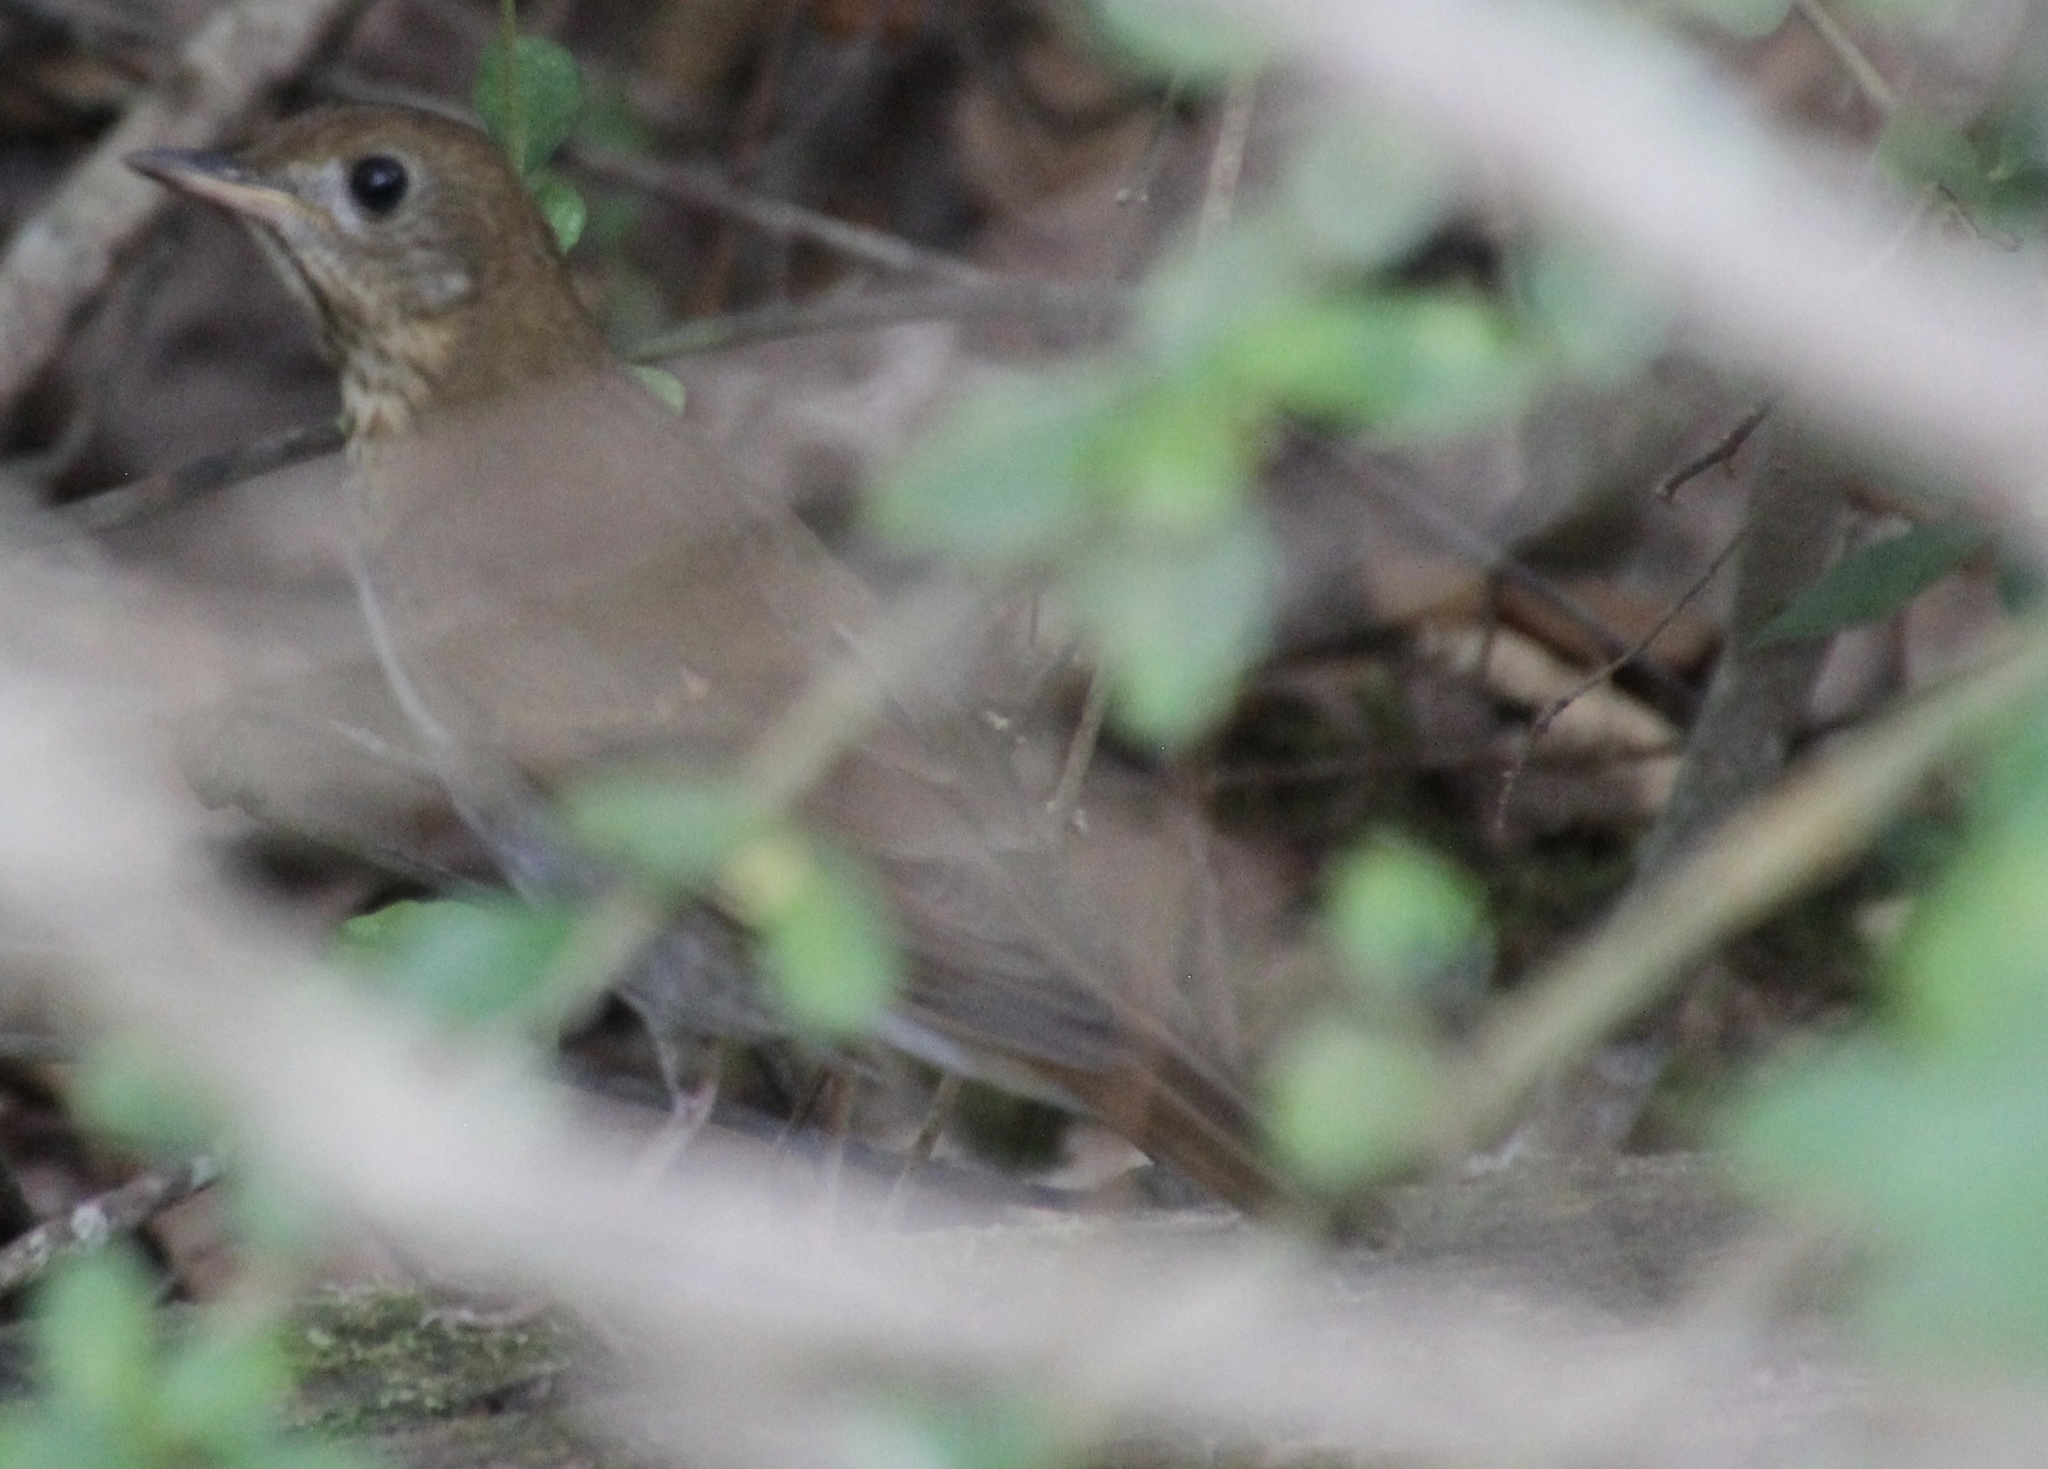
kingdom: Animalia
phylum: Chordata
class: Aves
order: Passeriformes
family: Turdidae
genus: Catharus
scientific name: Catharus fuscescens
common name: Veery
